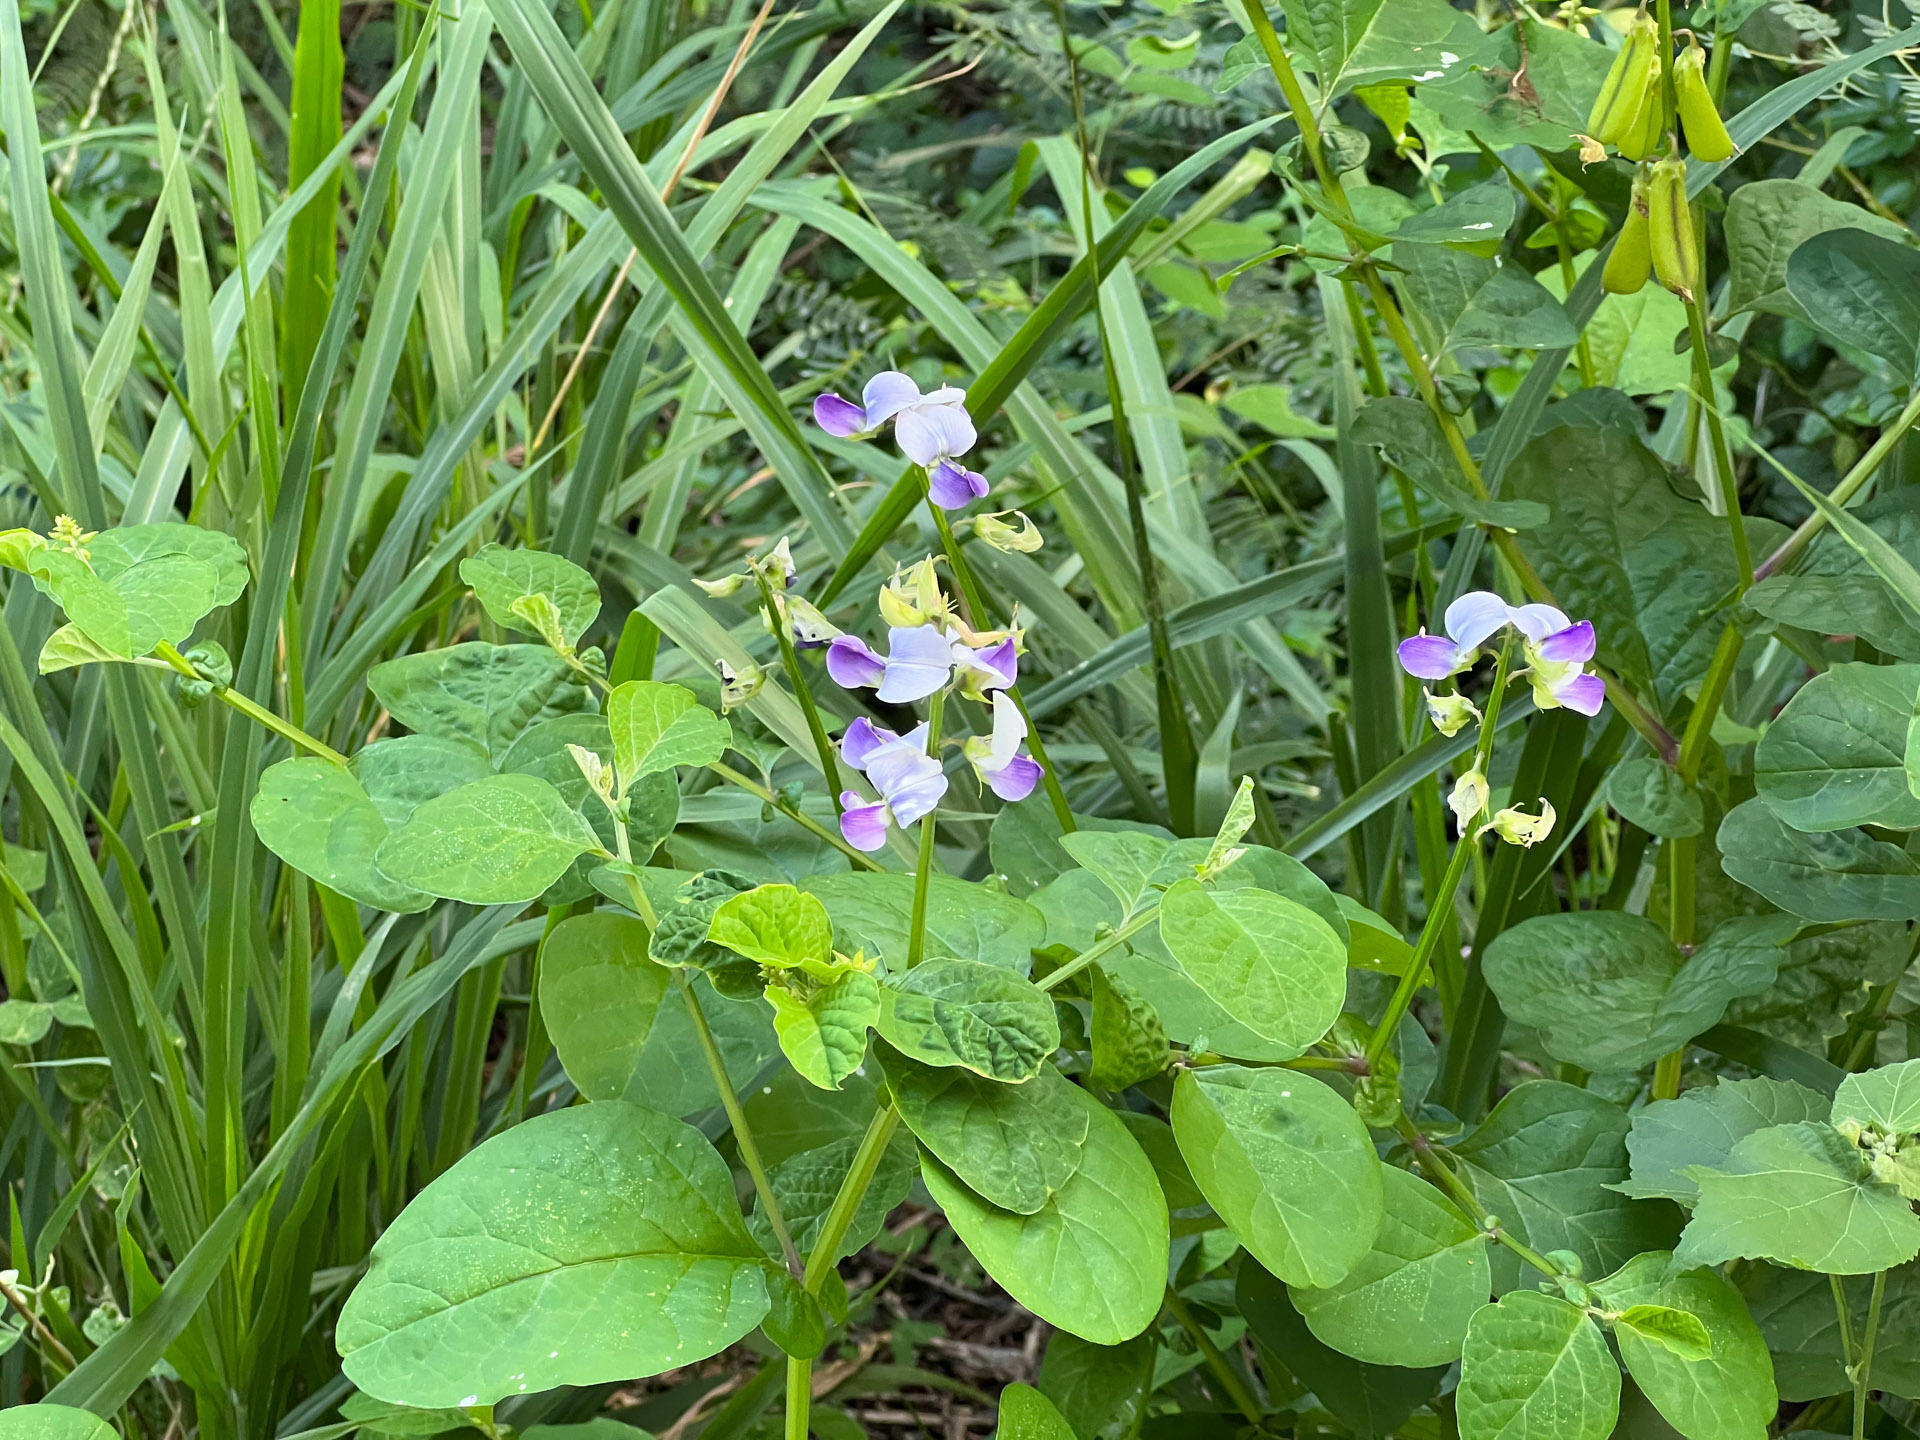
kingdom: Plantae
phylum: Tracheophyta
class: Magnoliopsida
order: Fabales
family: Fabaceae
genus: Crotalaria
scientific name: Crotalaria verrucosa
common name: Blue rattlesnake
